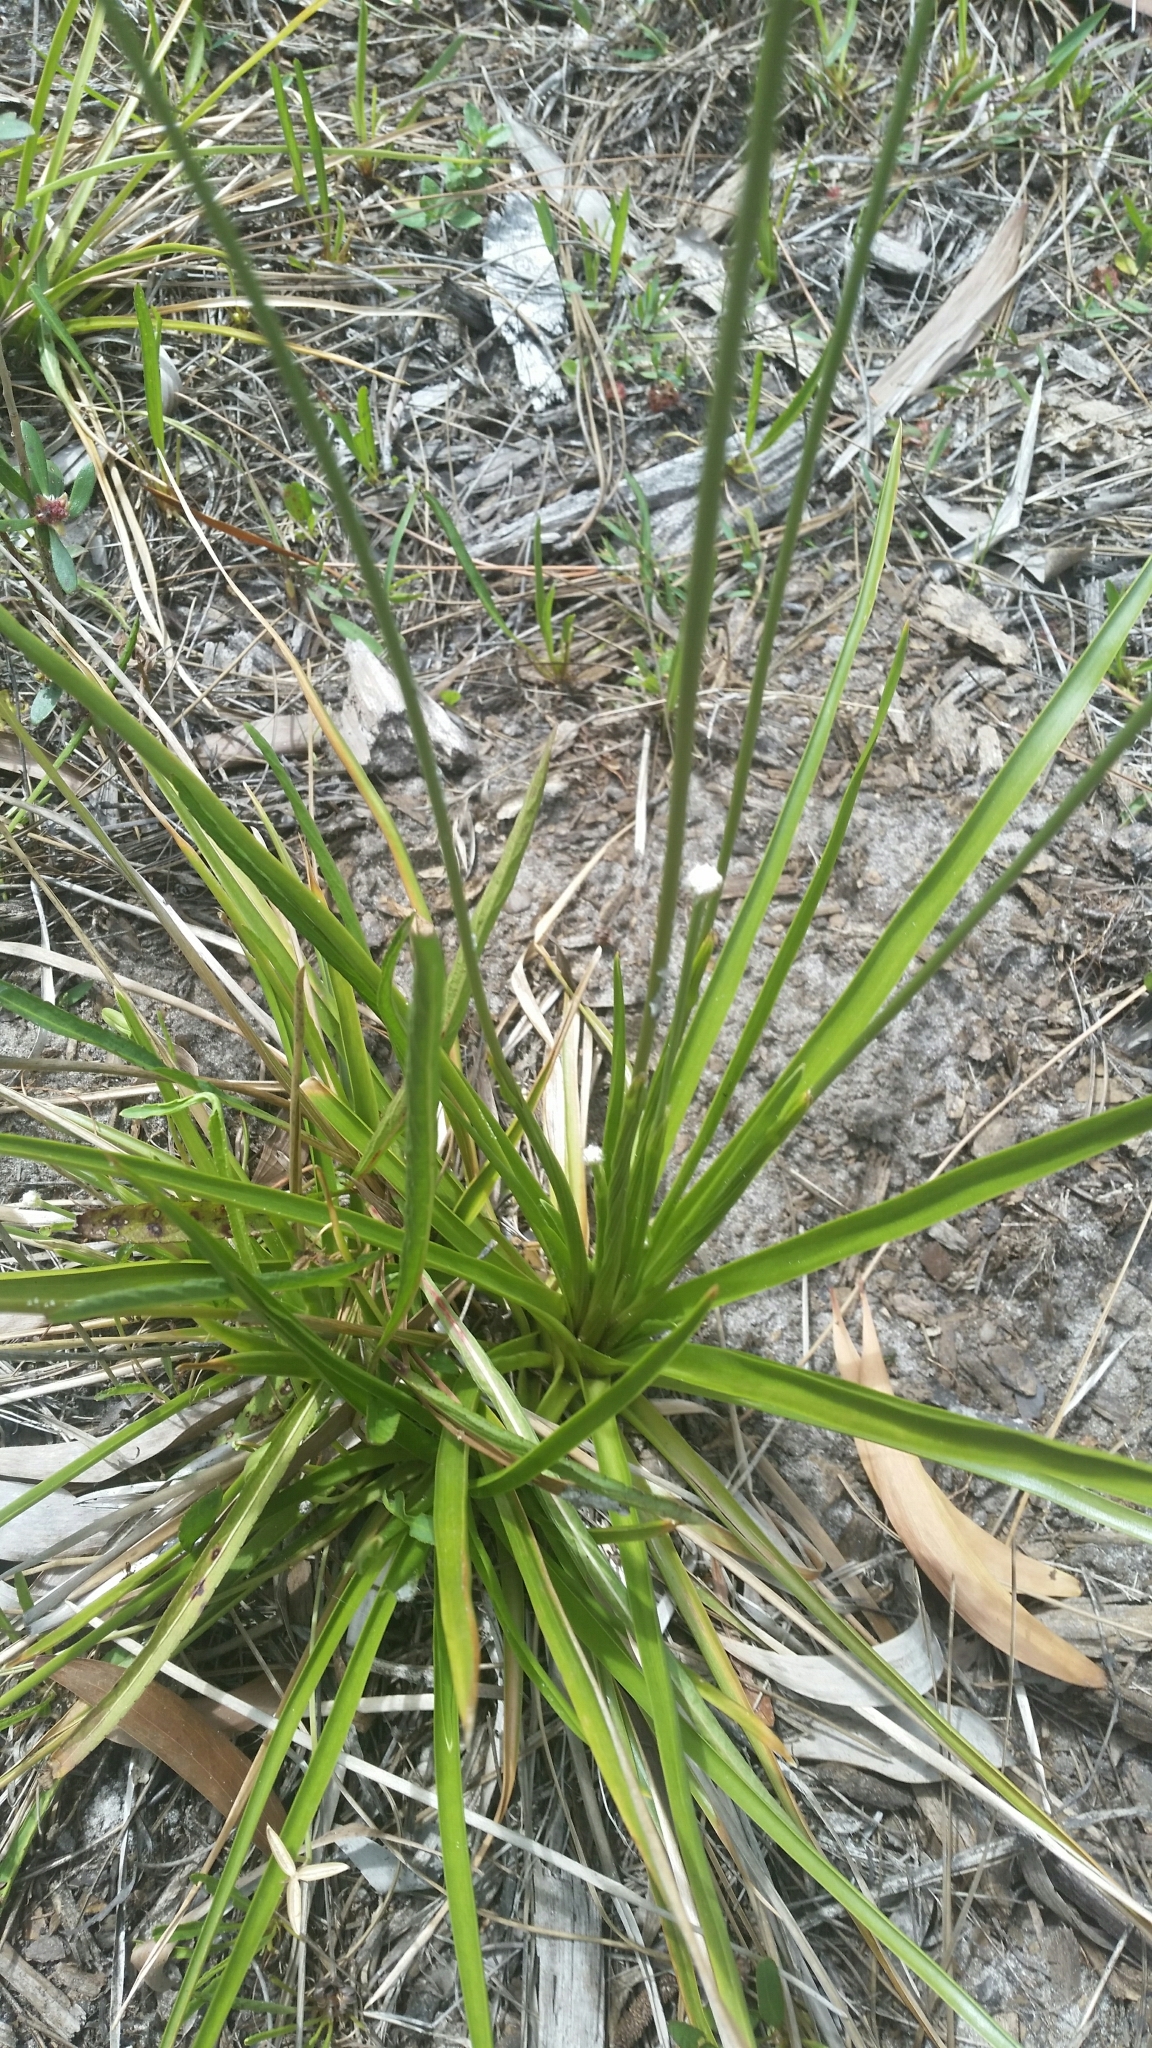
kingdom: Plantae
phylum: Tracheophyta
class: Liliopsida
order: Poales
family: Eriocaulaceae
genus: Eriocaulon
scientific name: Eriocaulon decangulare
